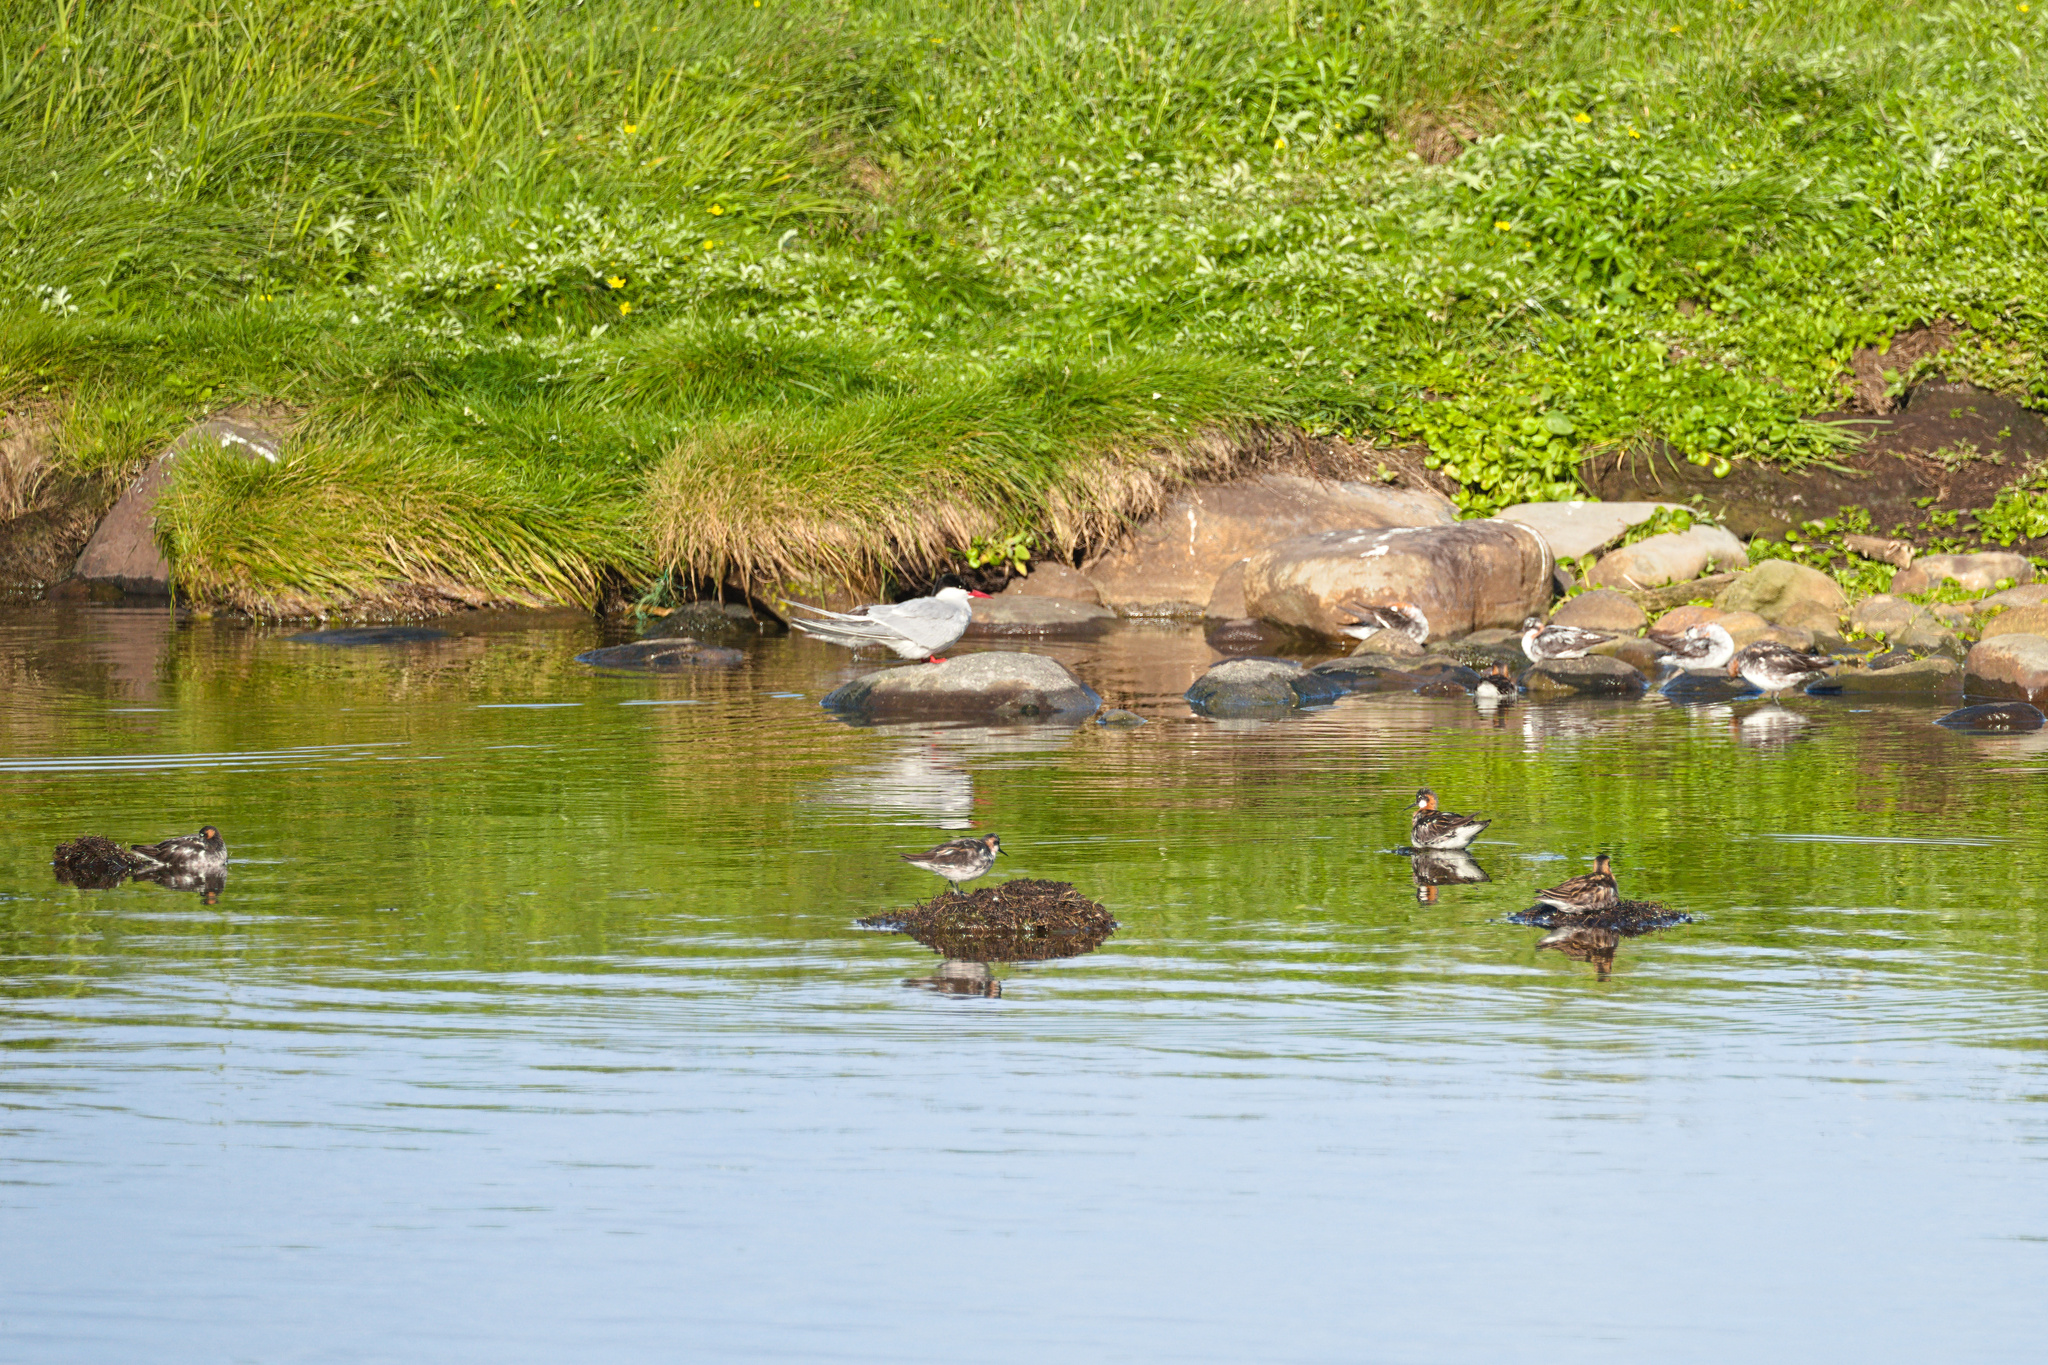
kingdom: Animalia
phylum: Chordata
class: Aves
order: Charadriiformes
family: Scolopacidae
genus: Phalaropus
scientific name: Phalaropus lobatus
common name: Red-necked phalarope
